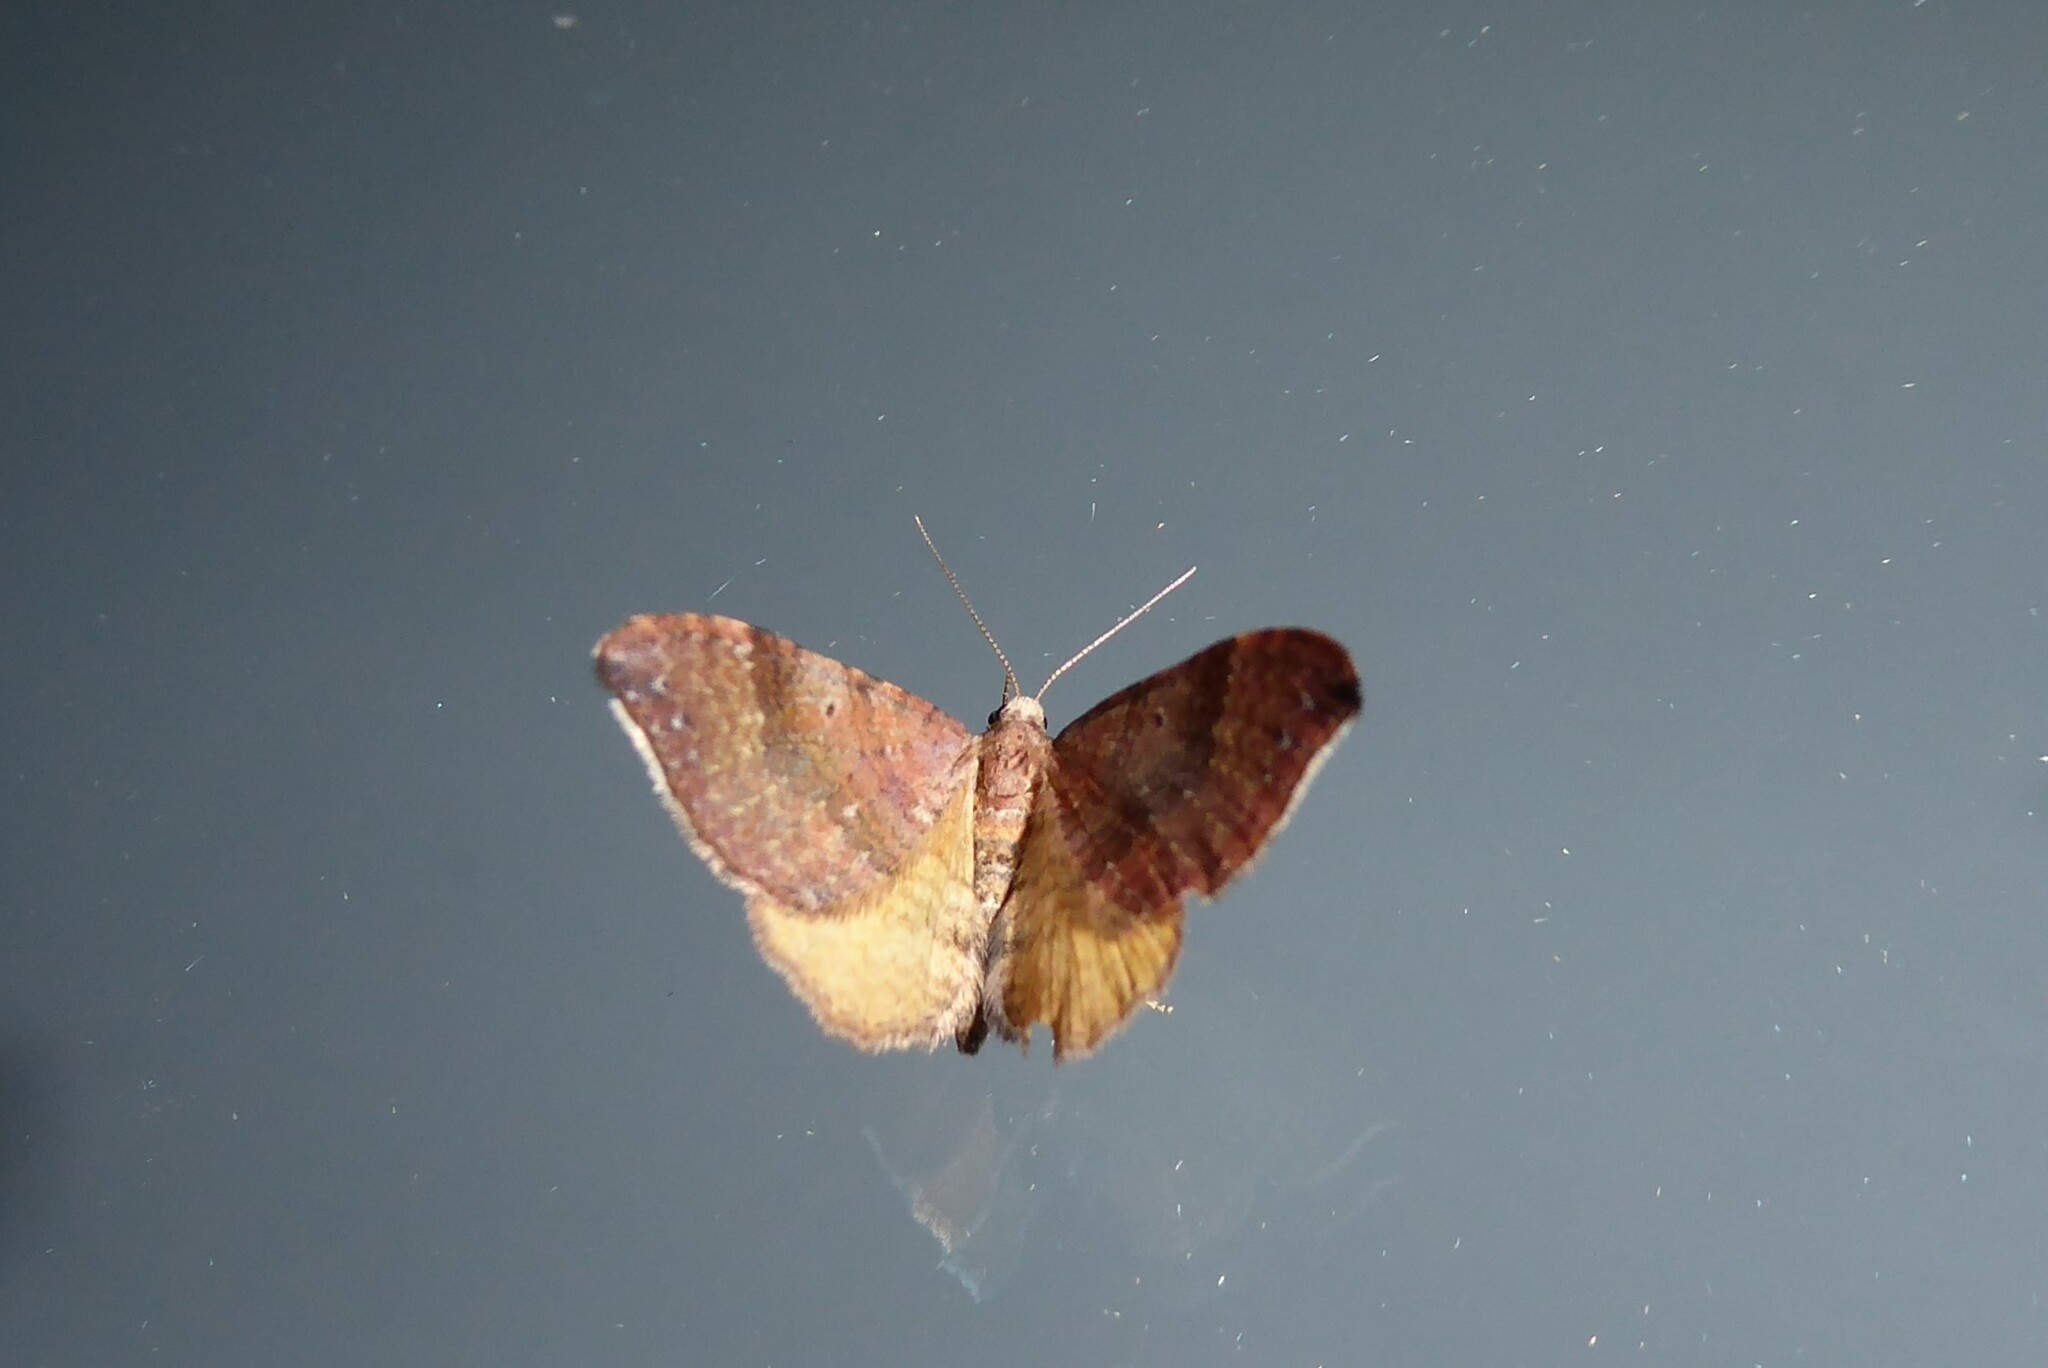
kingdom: Animalia
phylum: Arthropoda
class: Insecta
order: Lepidoptera
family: Geometridae
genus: Homodotis
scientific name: Homodotis megaspilata
